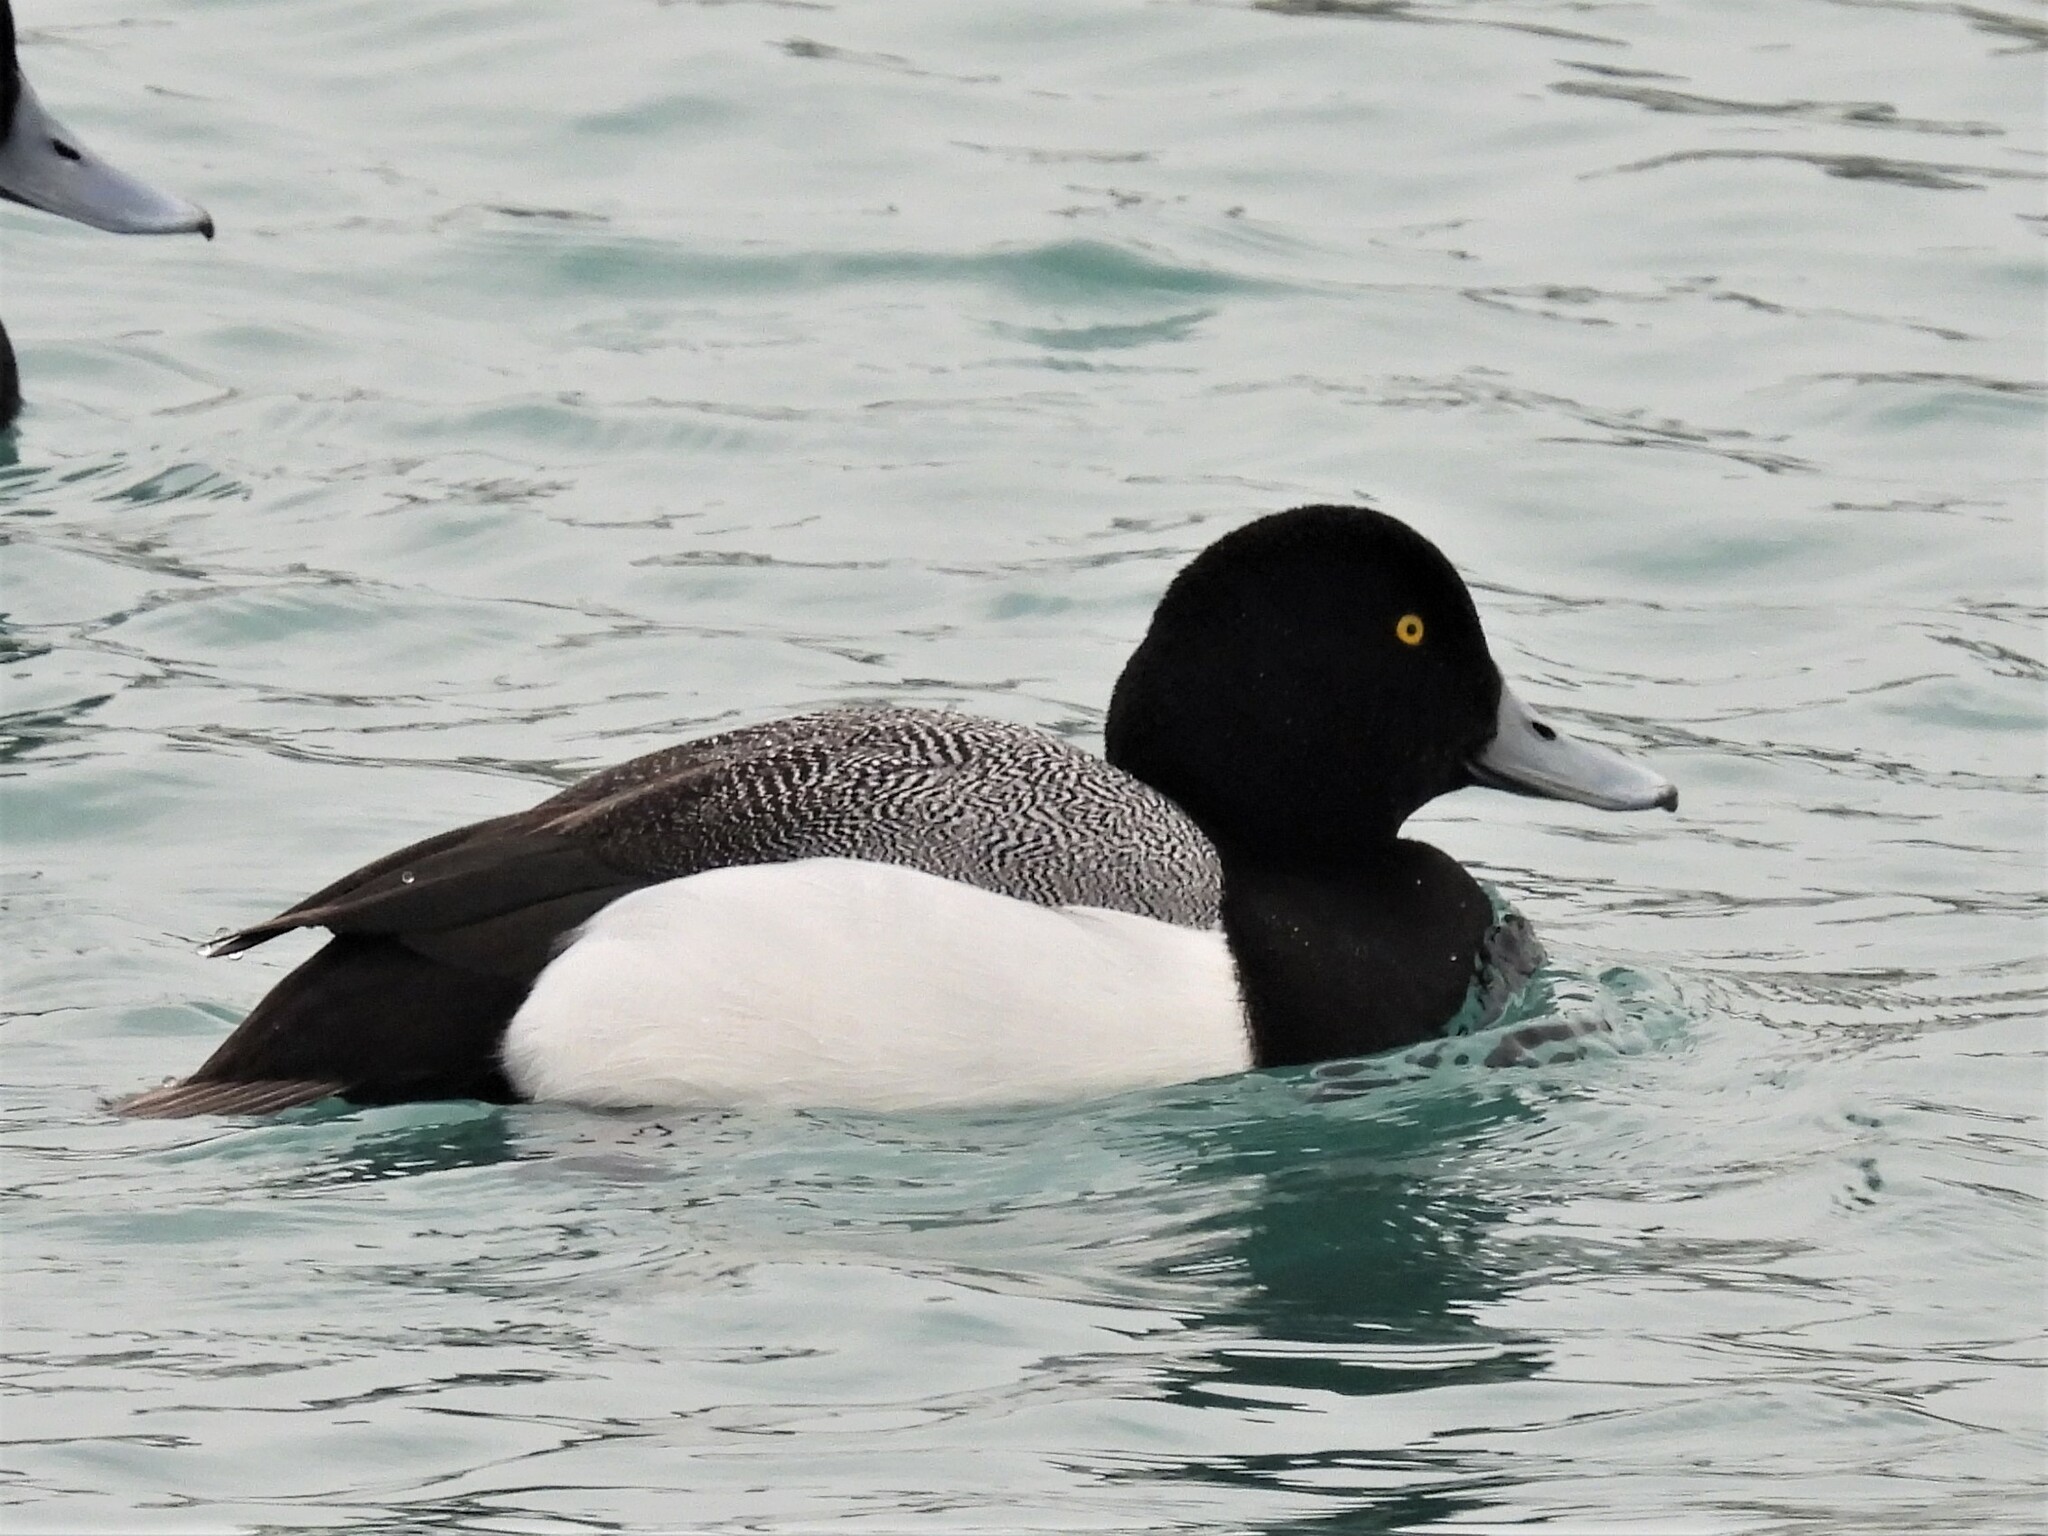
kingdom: Animalia
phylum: Chordata
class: Aves
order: Anseriformes
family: Anatidae
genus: Aythya
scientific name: Aythya marila
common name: Greater scaup
